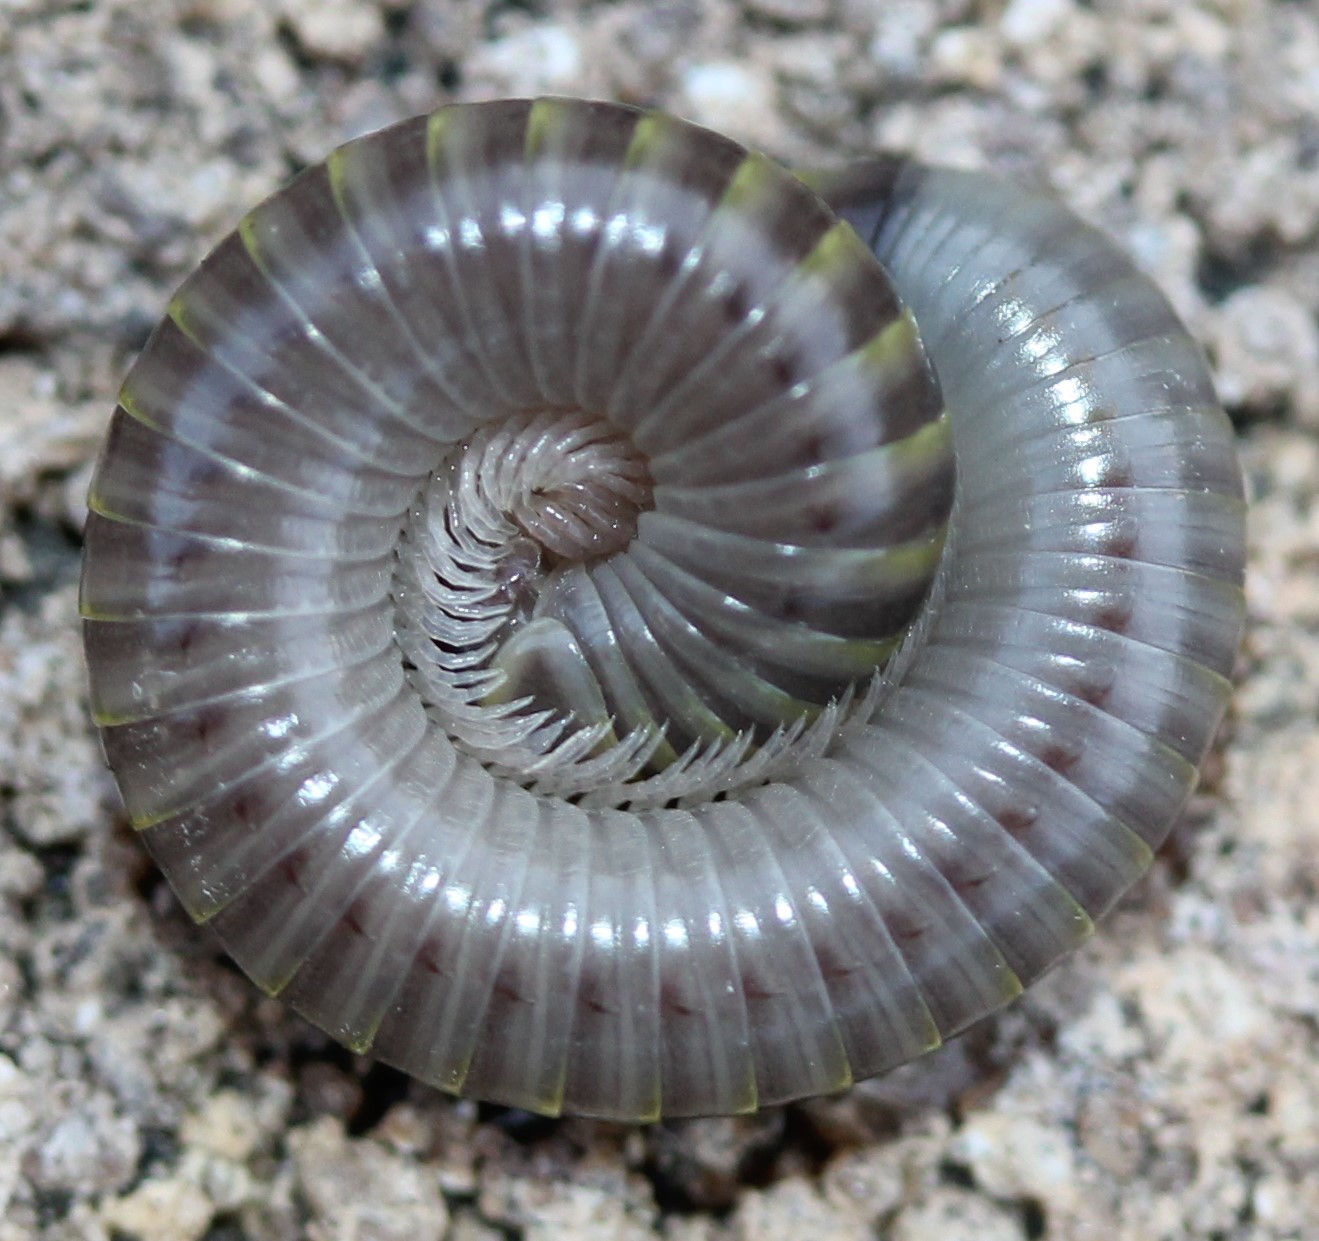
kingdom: Animalia
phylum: Arthropoda
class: Diplopoda
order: Spirobolida
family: Rhinocricidae
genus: Anadenobolus
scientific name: Anadenobolus monilicornis
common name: Caribbean millipede
